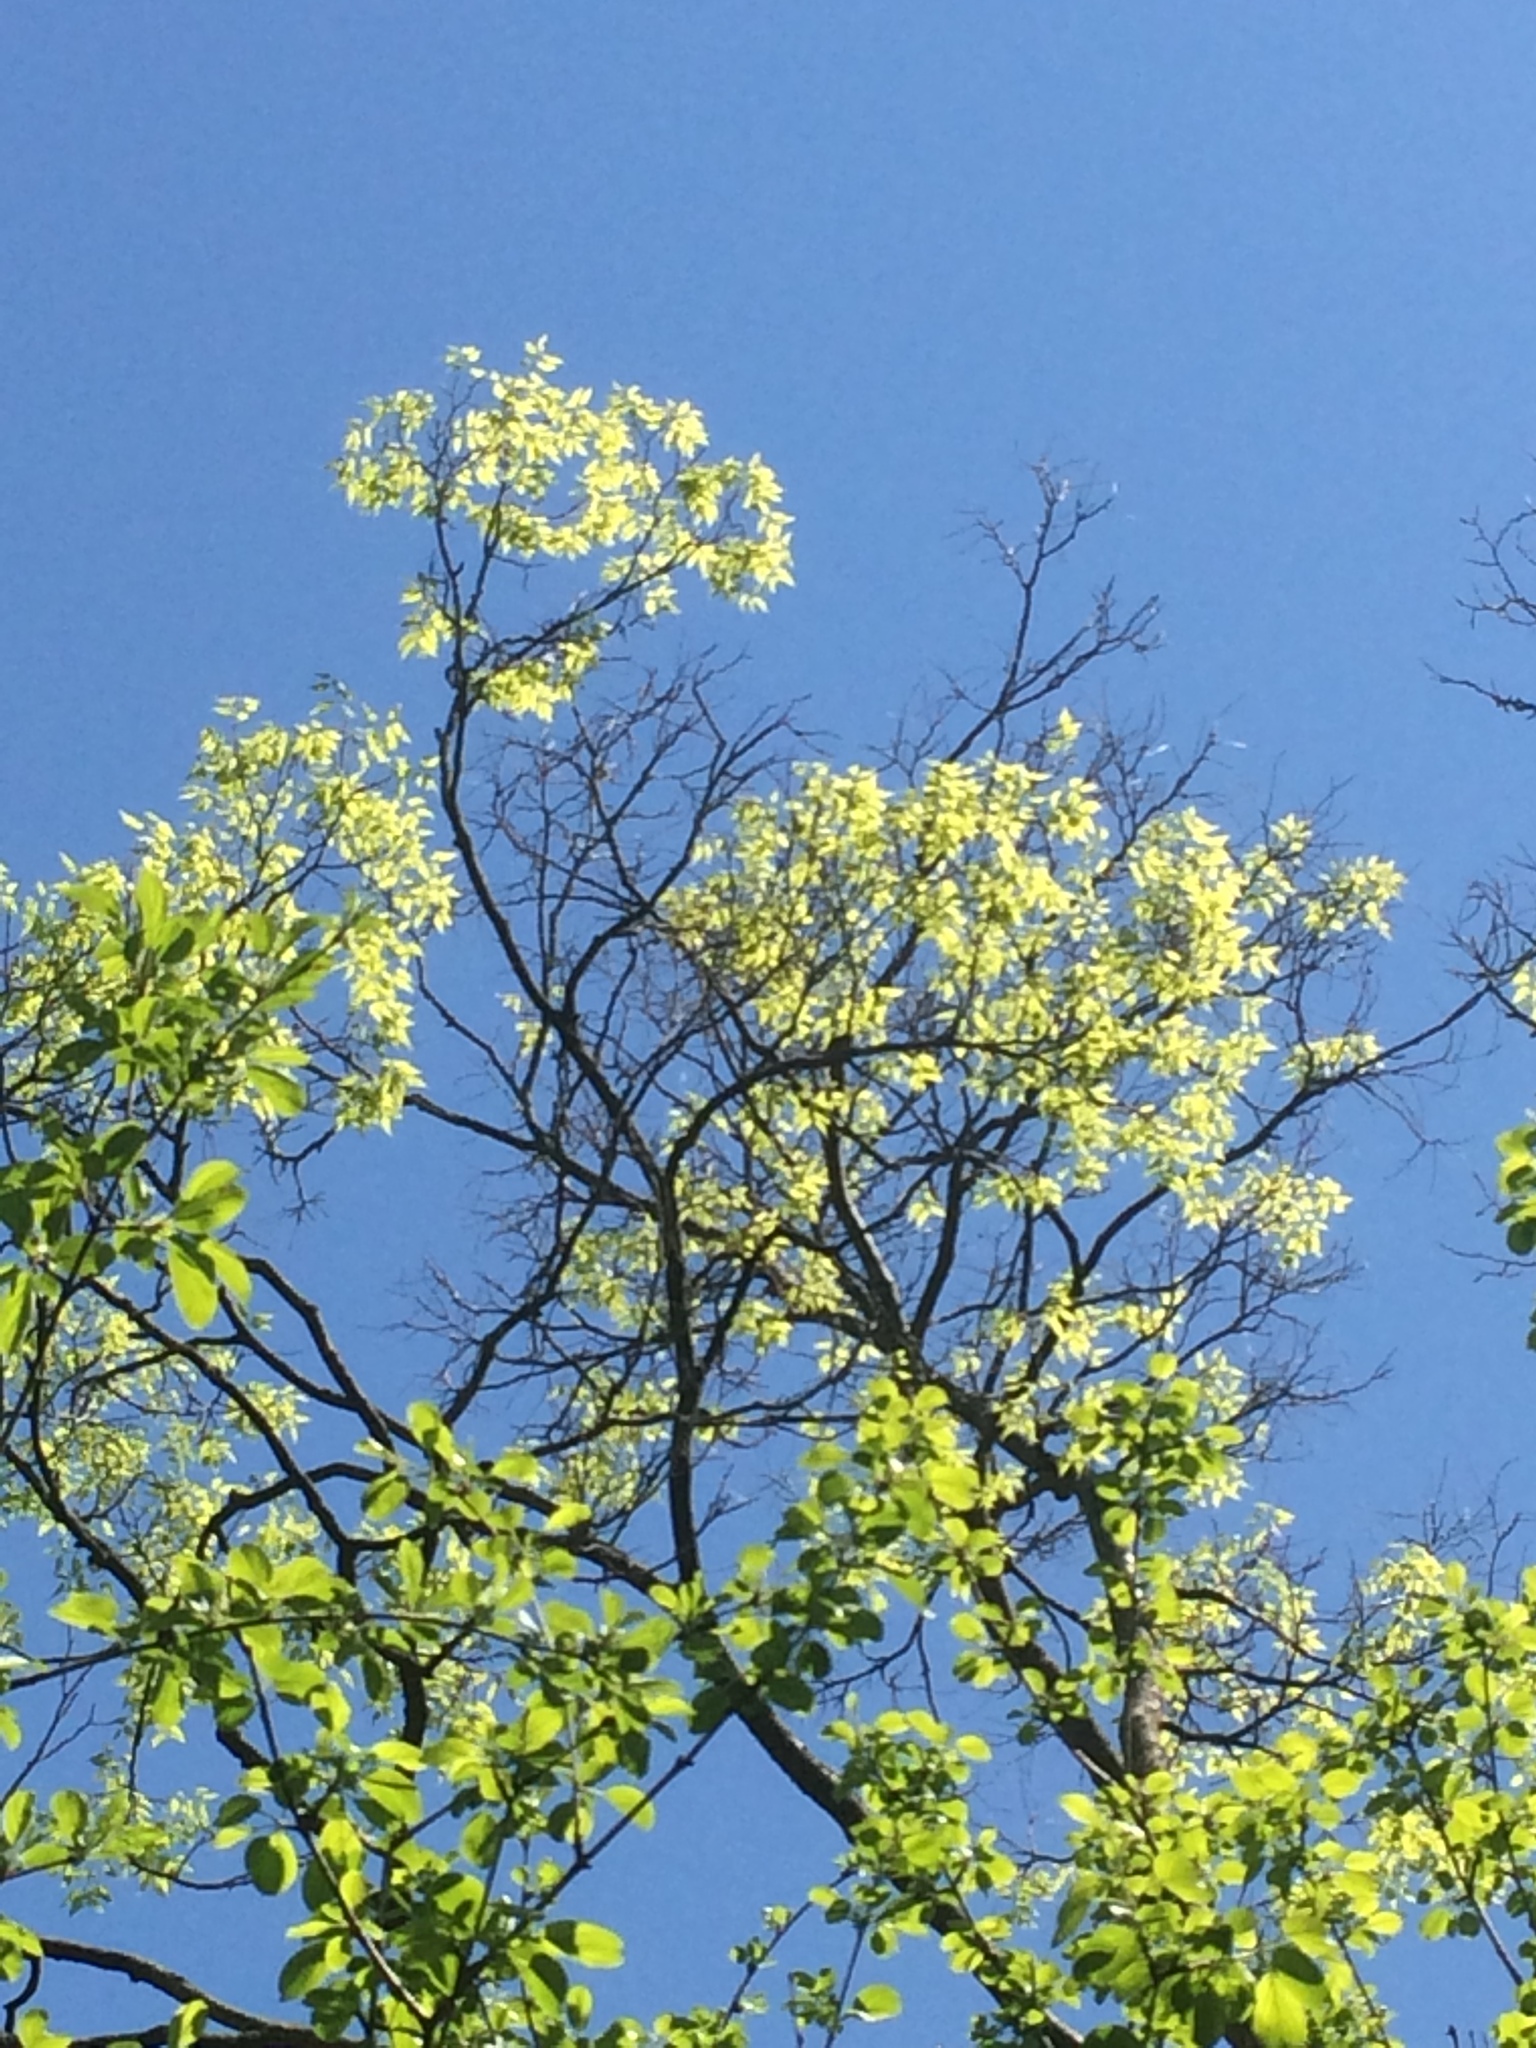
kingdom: Plantae
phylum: Tracheophyta
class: Magnoliopsida
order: Rosales
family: Cannabaceae
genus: Celtis
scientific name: Celtis occidentalis
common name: Common hackberry
